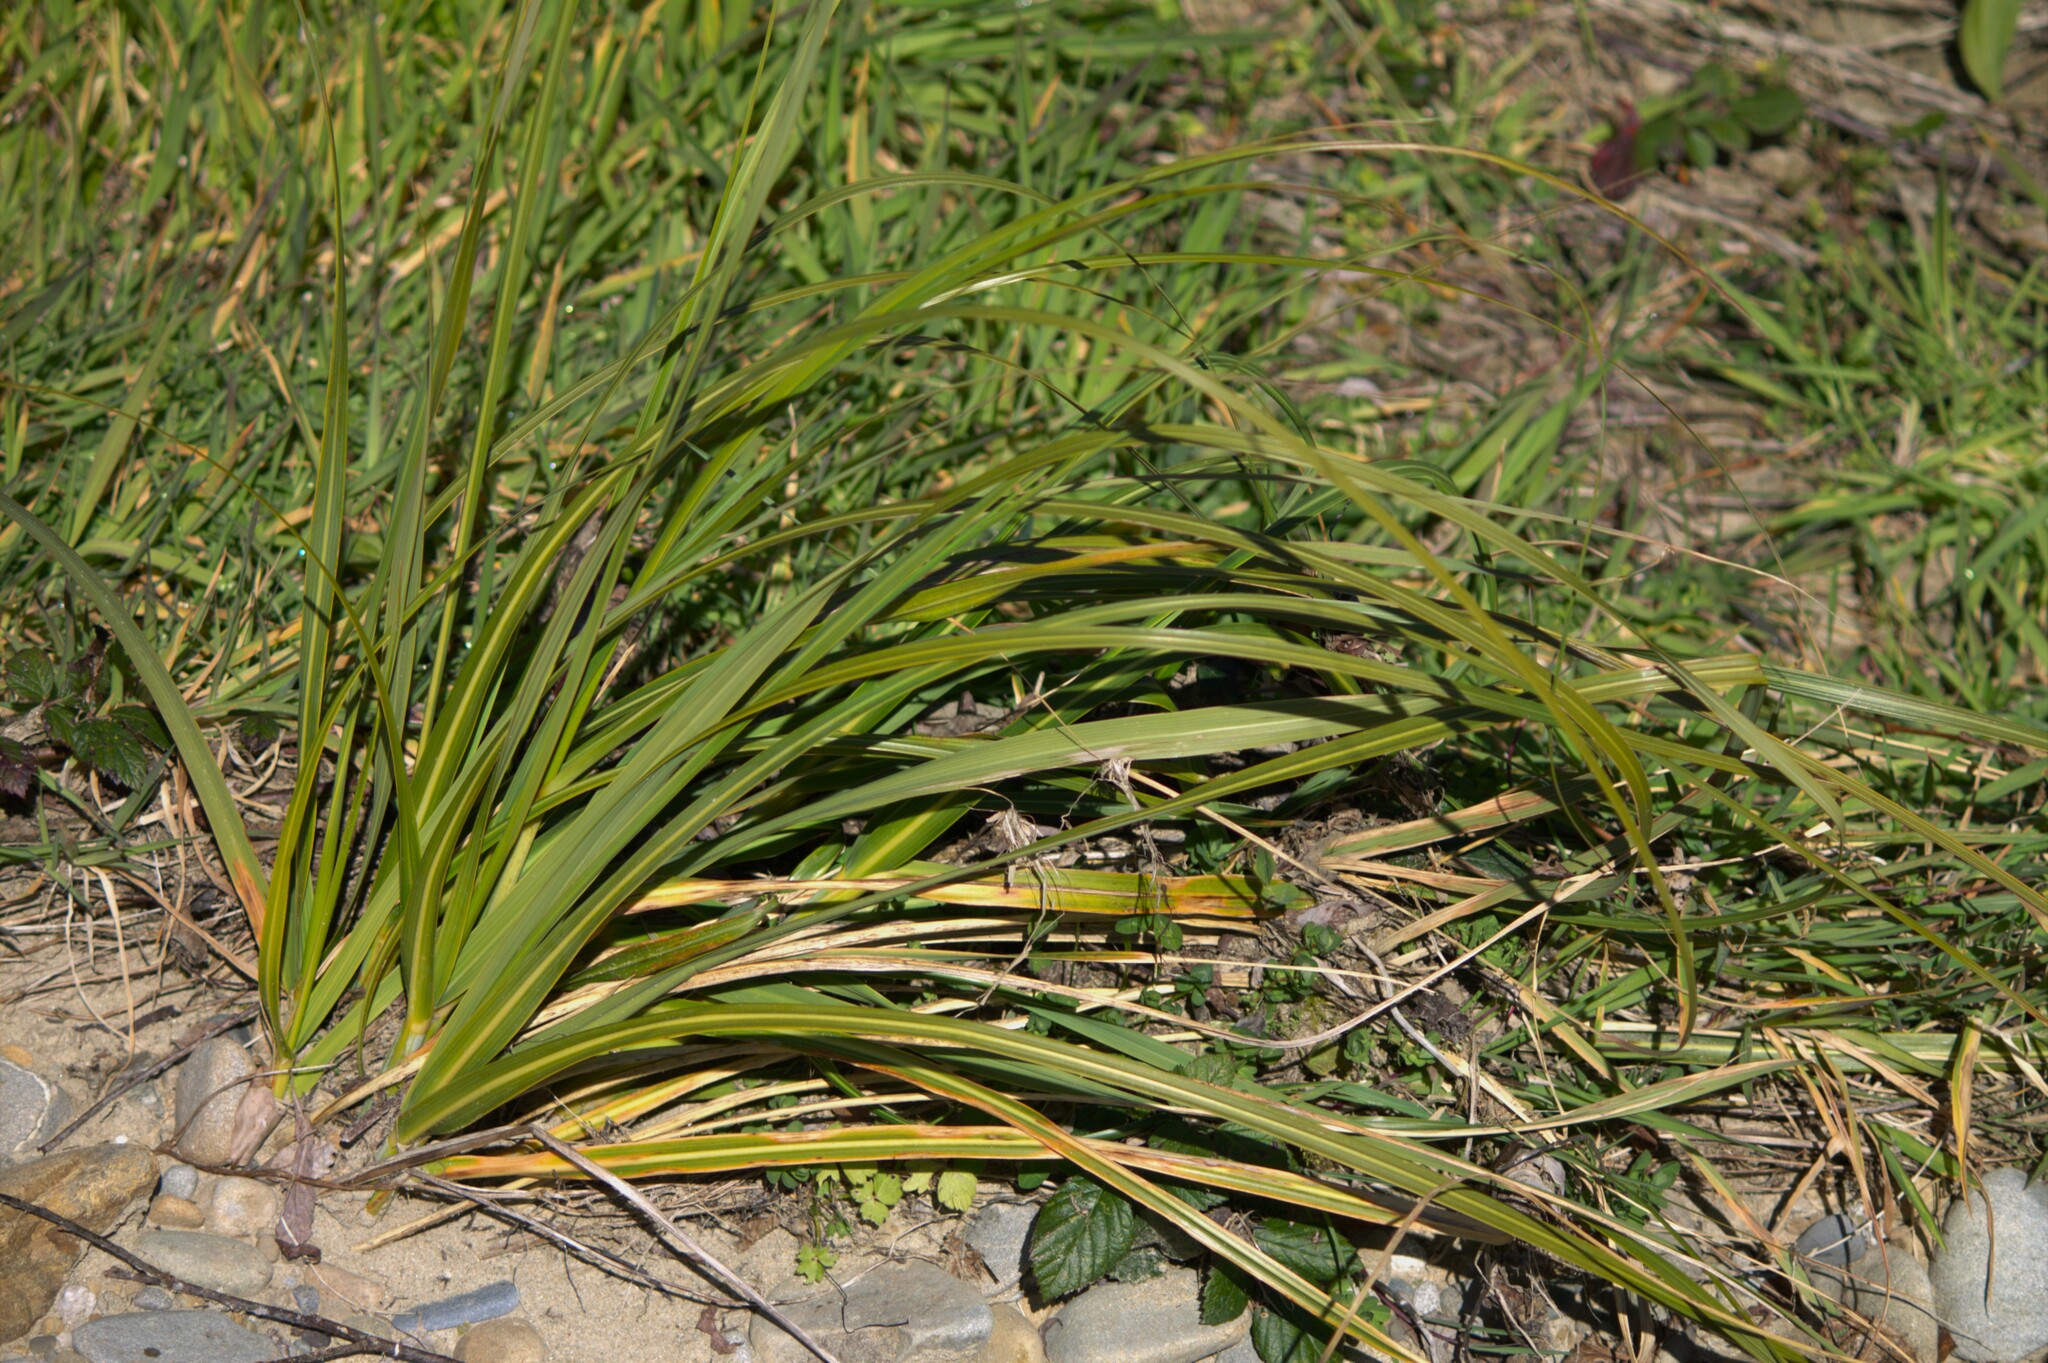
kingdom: Plantae
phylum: Tracheophyta
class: Liliopsida
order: Poales
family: Poaceae
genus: Austroderia
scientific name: Austroderia richardii
